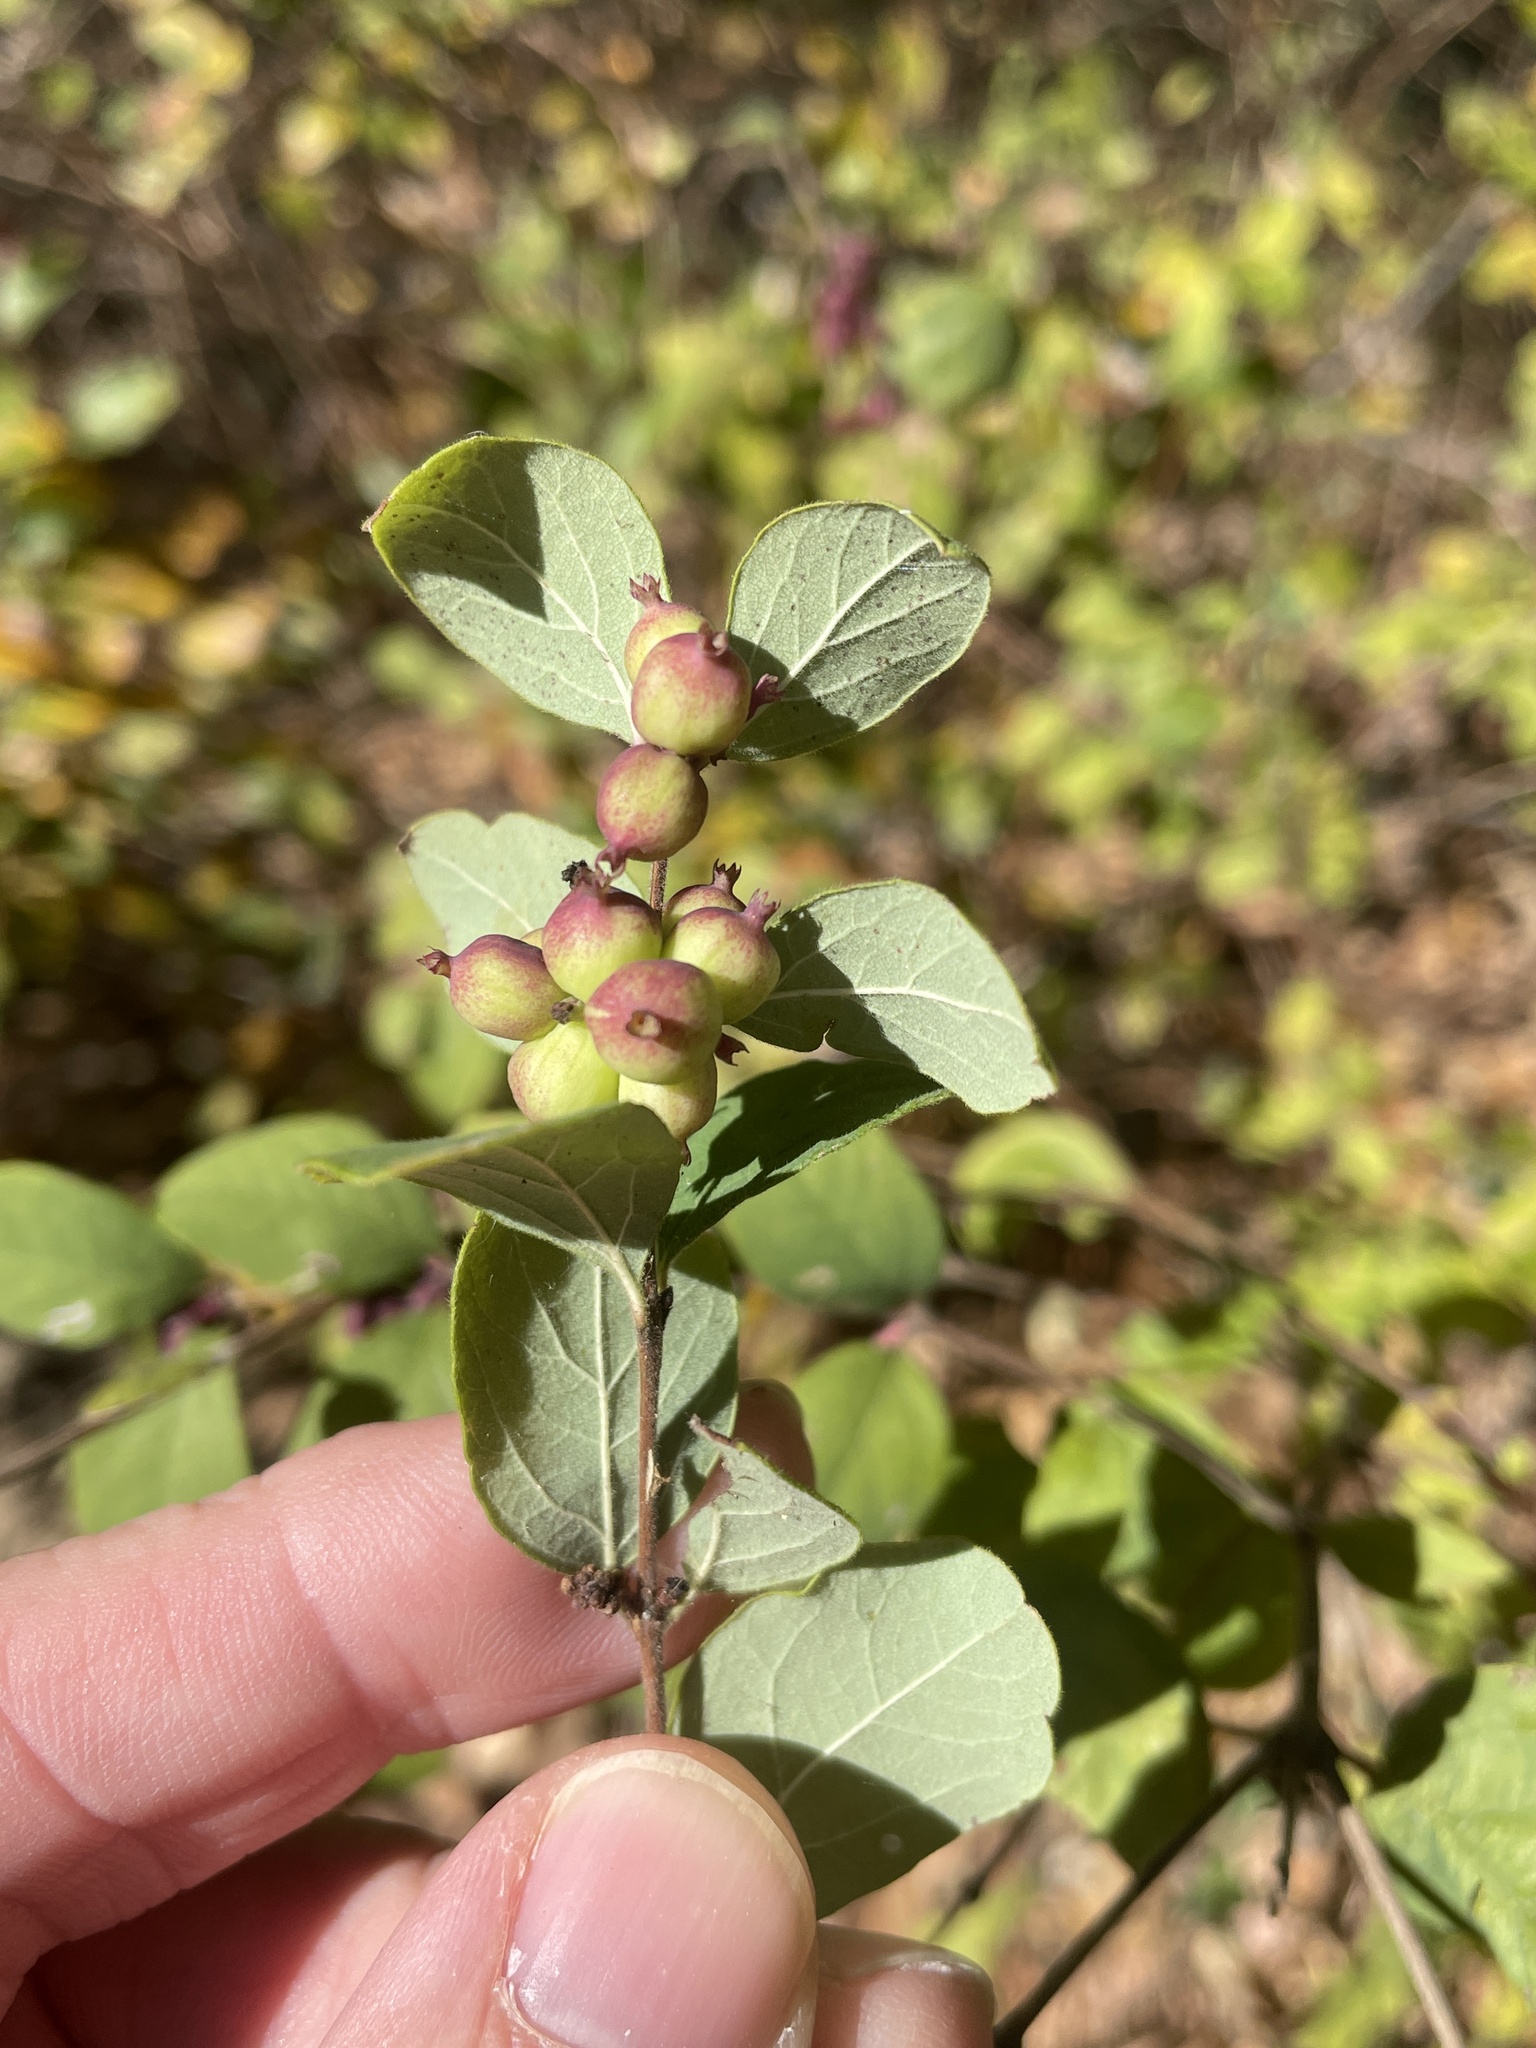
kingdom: Plantae
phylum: Tracheophyta
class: Magnoliopsida
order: Dipsacales
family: Caprifoliaceae
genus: Symphoricarpos
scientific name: Symphoricarpos orbiculatus
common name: Coralberry
